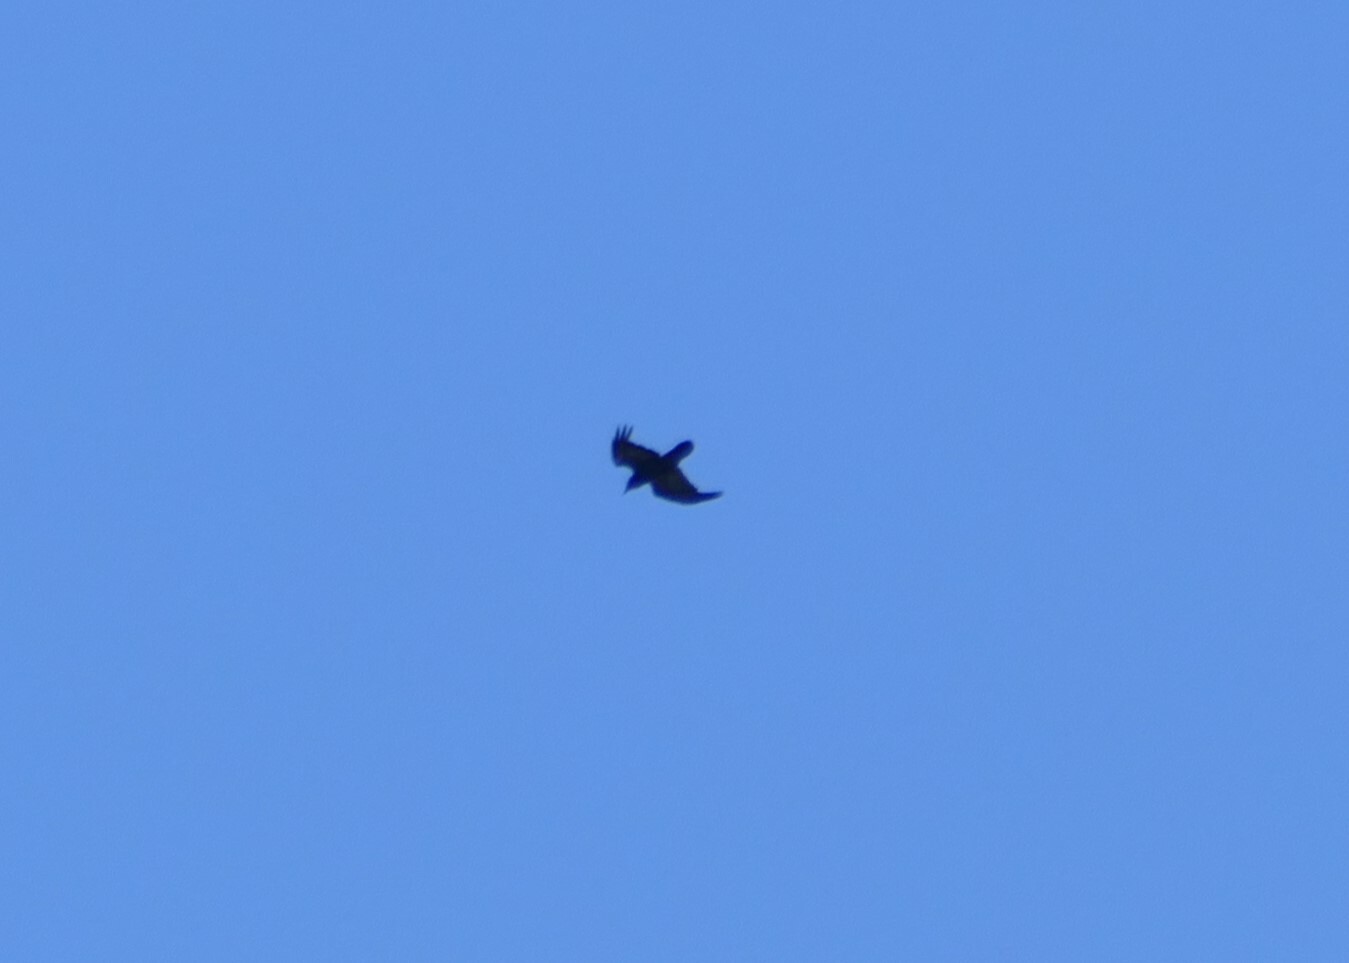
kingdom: Animalia
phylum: Chordata
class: Aves
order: Passeriformes
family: Corvidae
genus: Corvus
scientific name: Corvus corax
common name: Common raven
